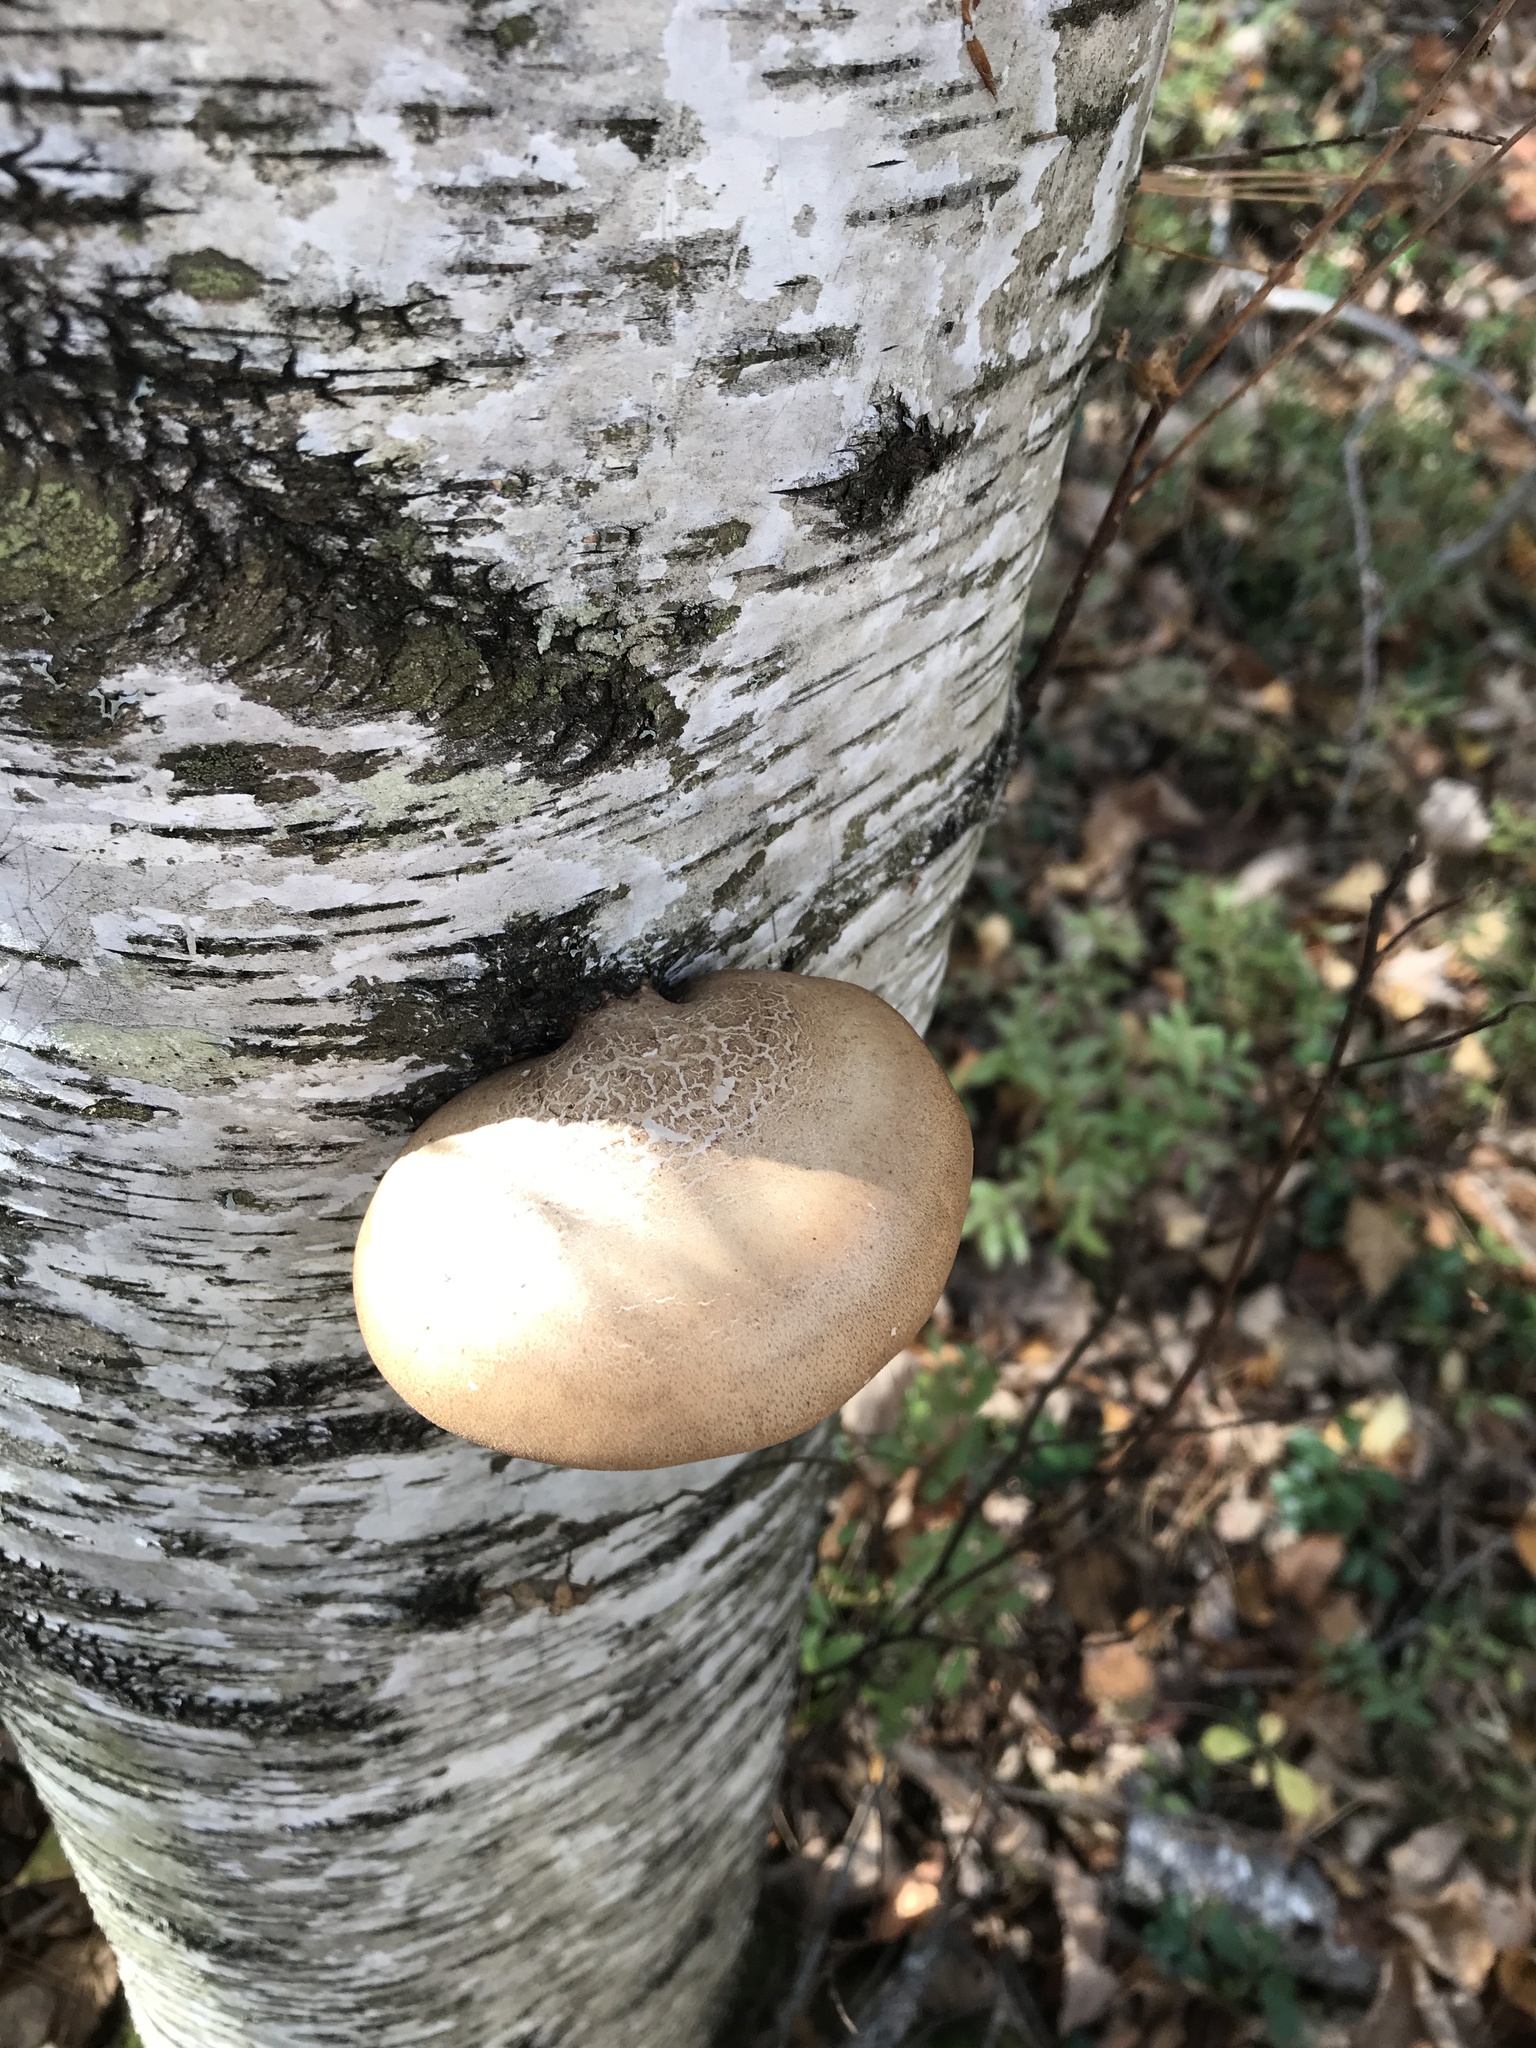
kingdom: Fungi
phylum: Basidiomycota
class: Agaricomycetes
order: Polyporales
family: Fomitopsidaceae
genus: Fomitopsis
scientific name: Fomitopsis betulina
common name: Birch polypore
